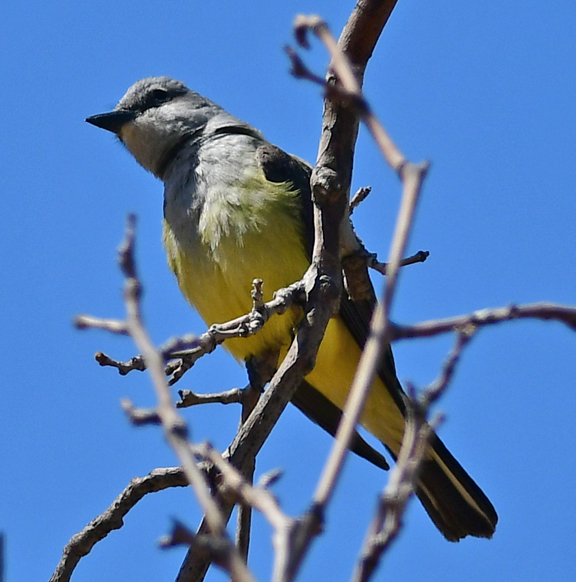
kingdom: Animalia
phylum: Chordata
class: Aves
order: Passeriformes
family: Tyrannidae
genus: Tyrannus
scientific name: Tyrannus verticalis
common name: Western kingbird
